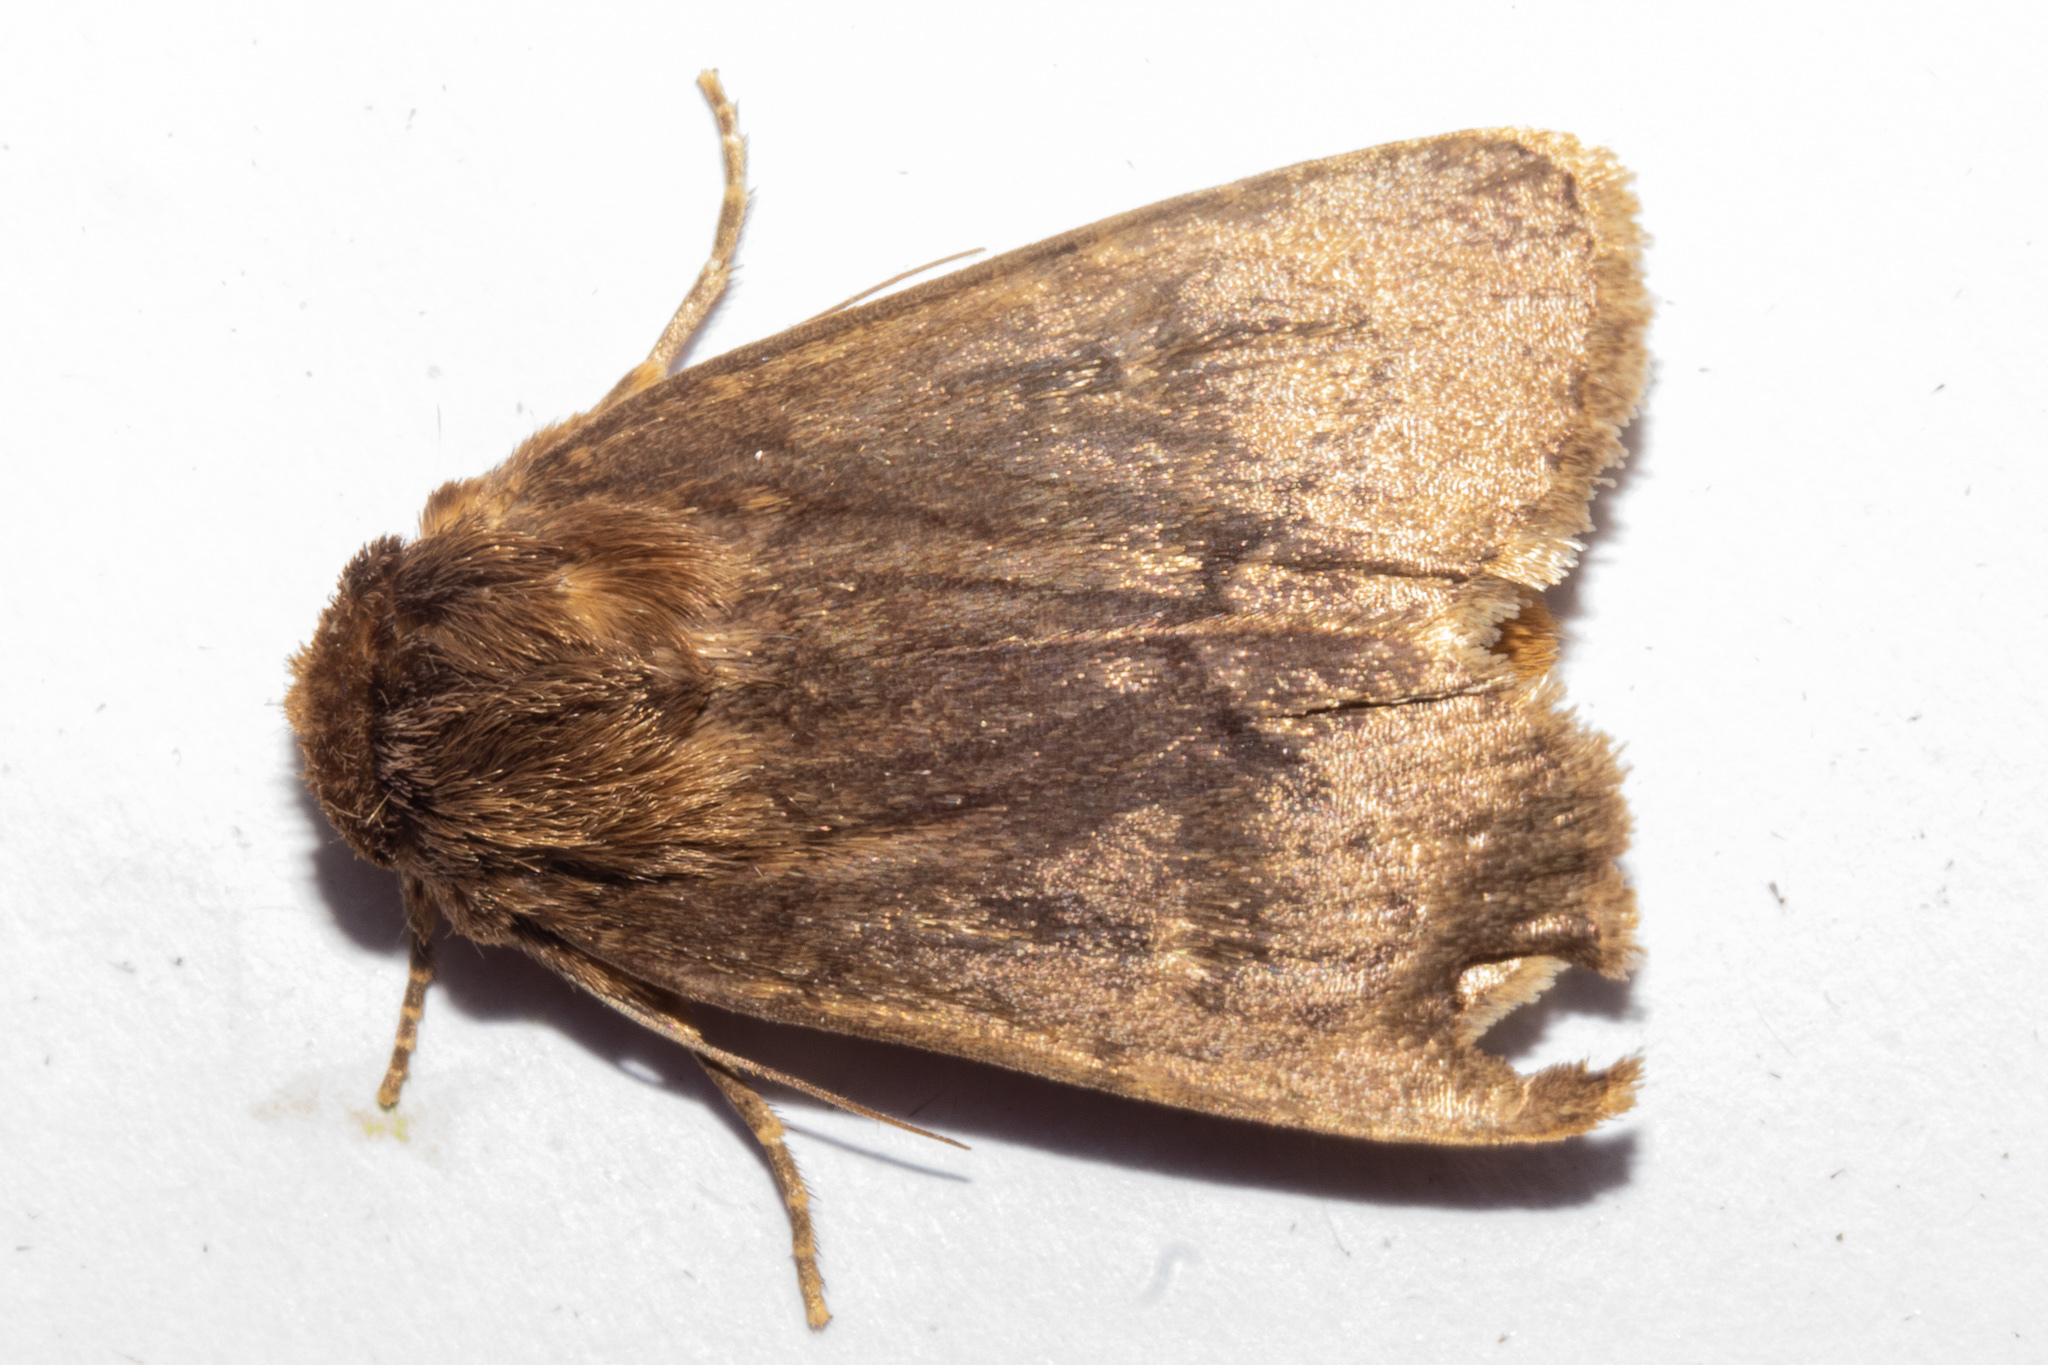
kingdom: Animalia
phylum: Arthropoda
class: Insecta
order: Lepidoptera
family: Noctuidae
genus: Bityla
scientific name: Bityla defigurata
